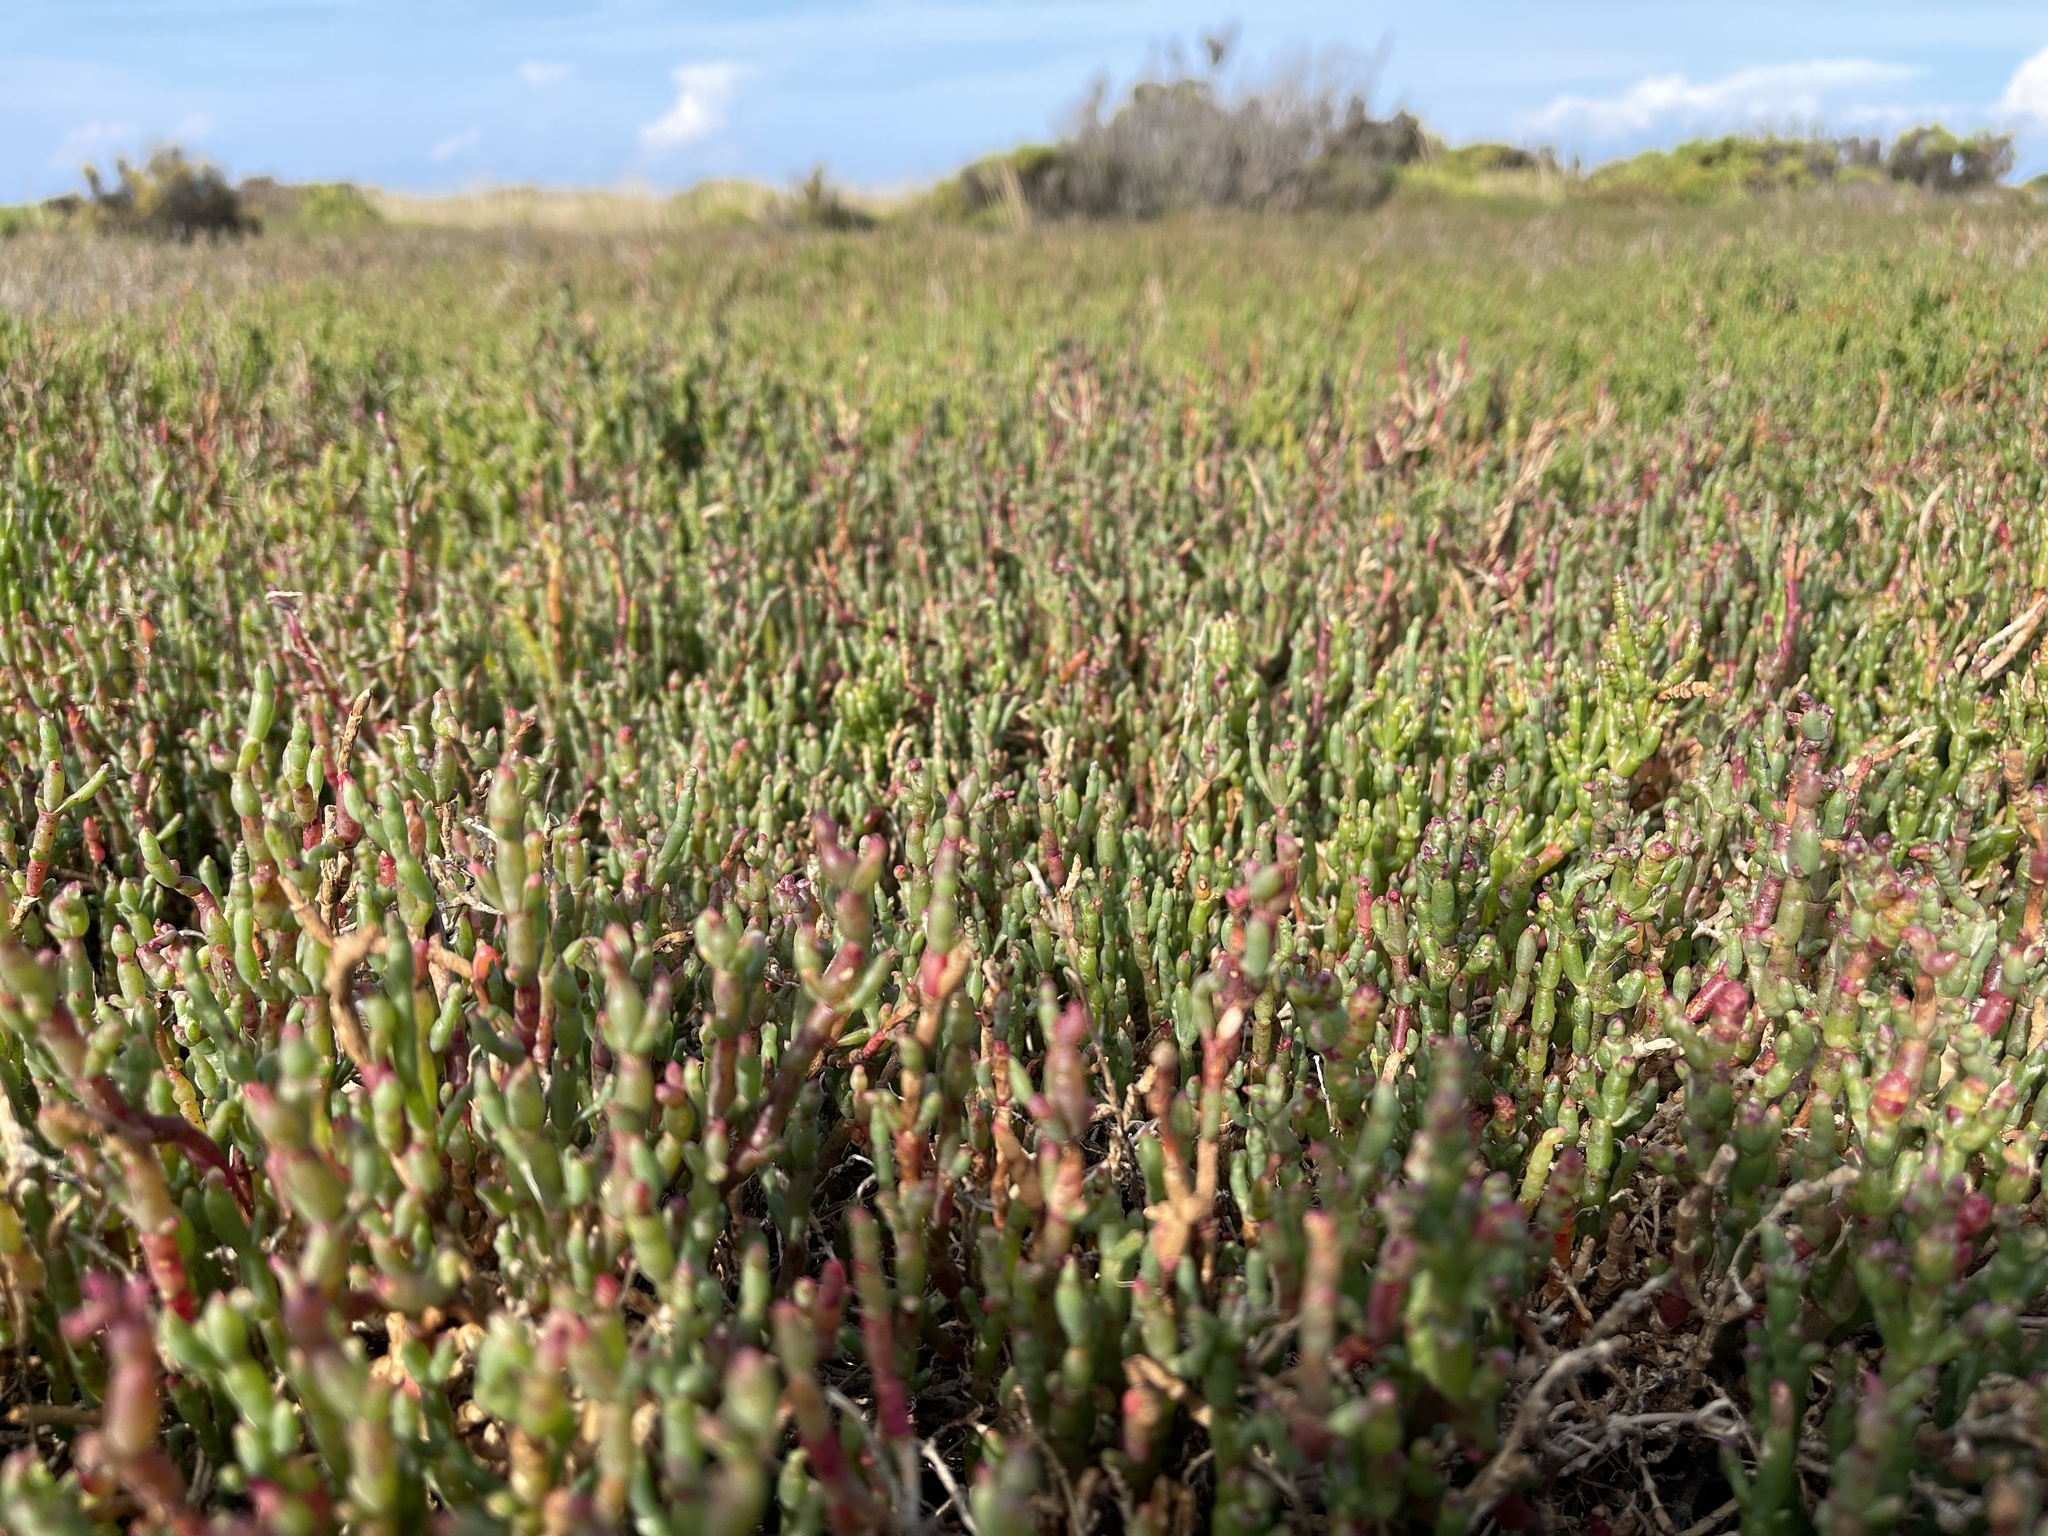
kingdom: Plantae
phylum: Tracheophyta
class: Magnoliopsida
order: Caryophyllales
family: Amaranthaceae
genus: Salicornia
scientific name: Salicornia quinqueflora
